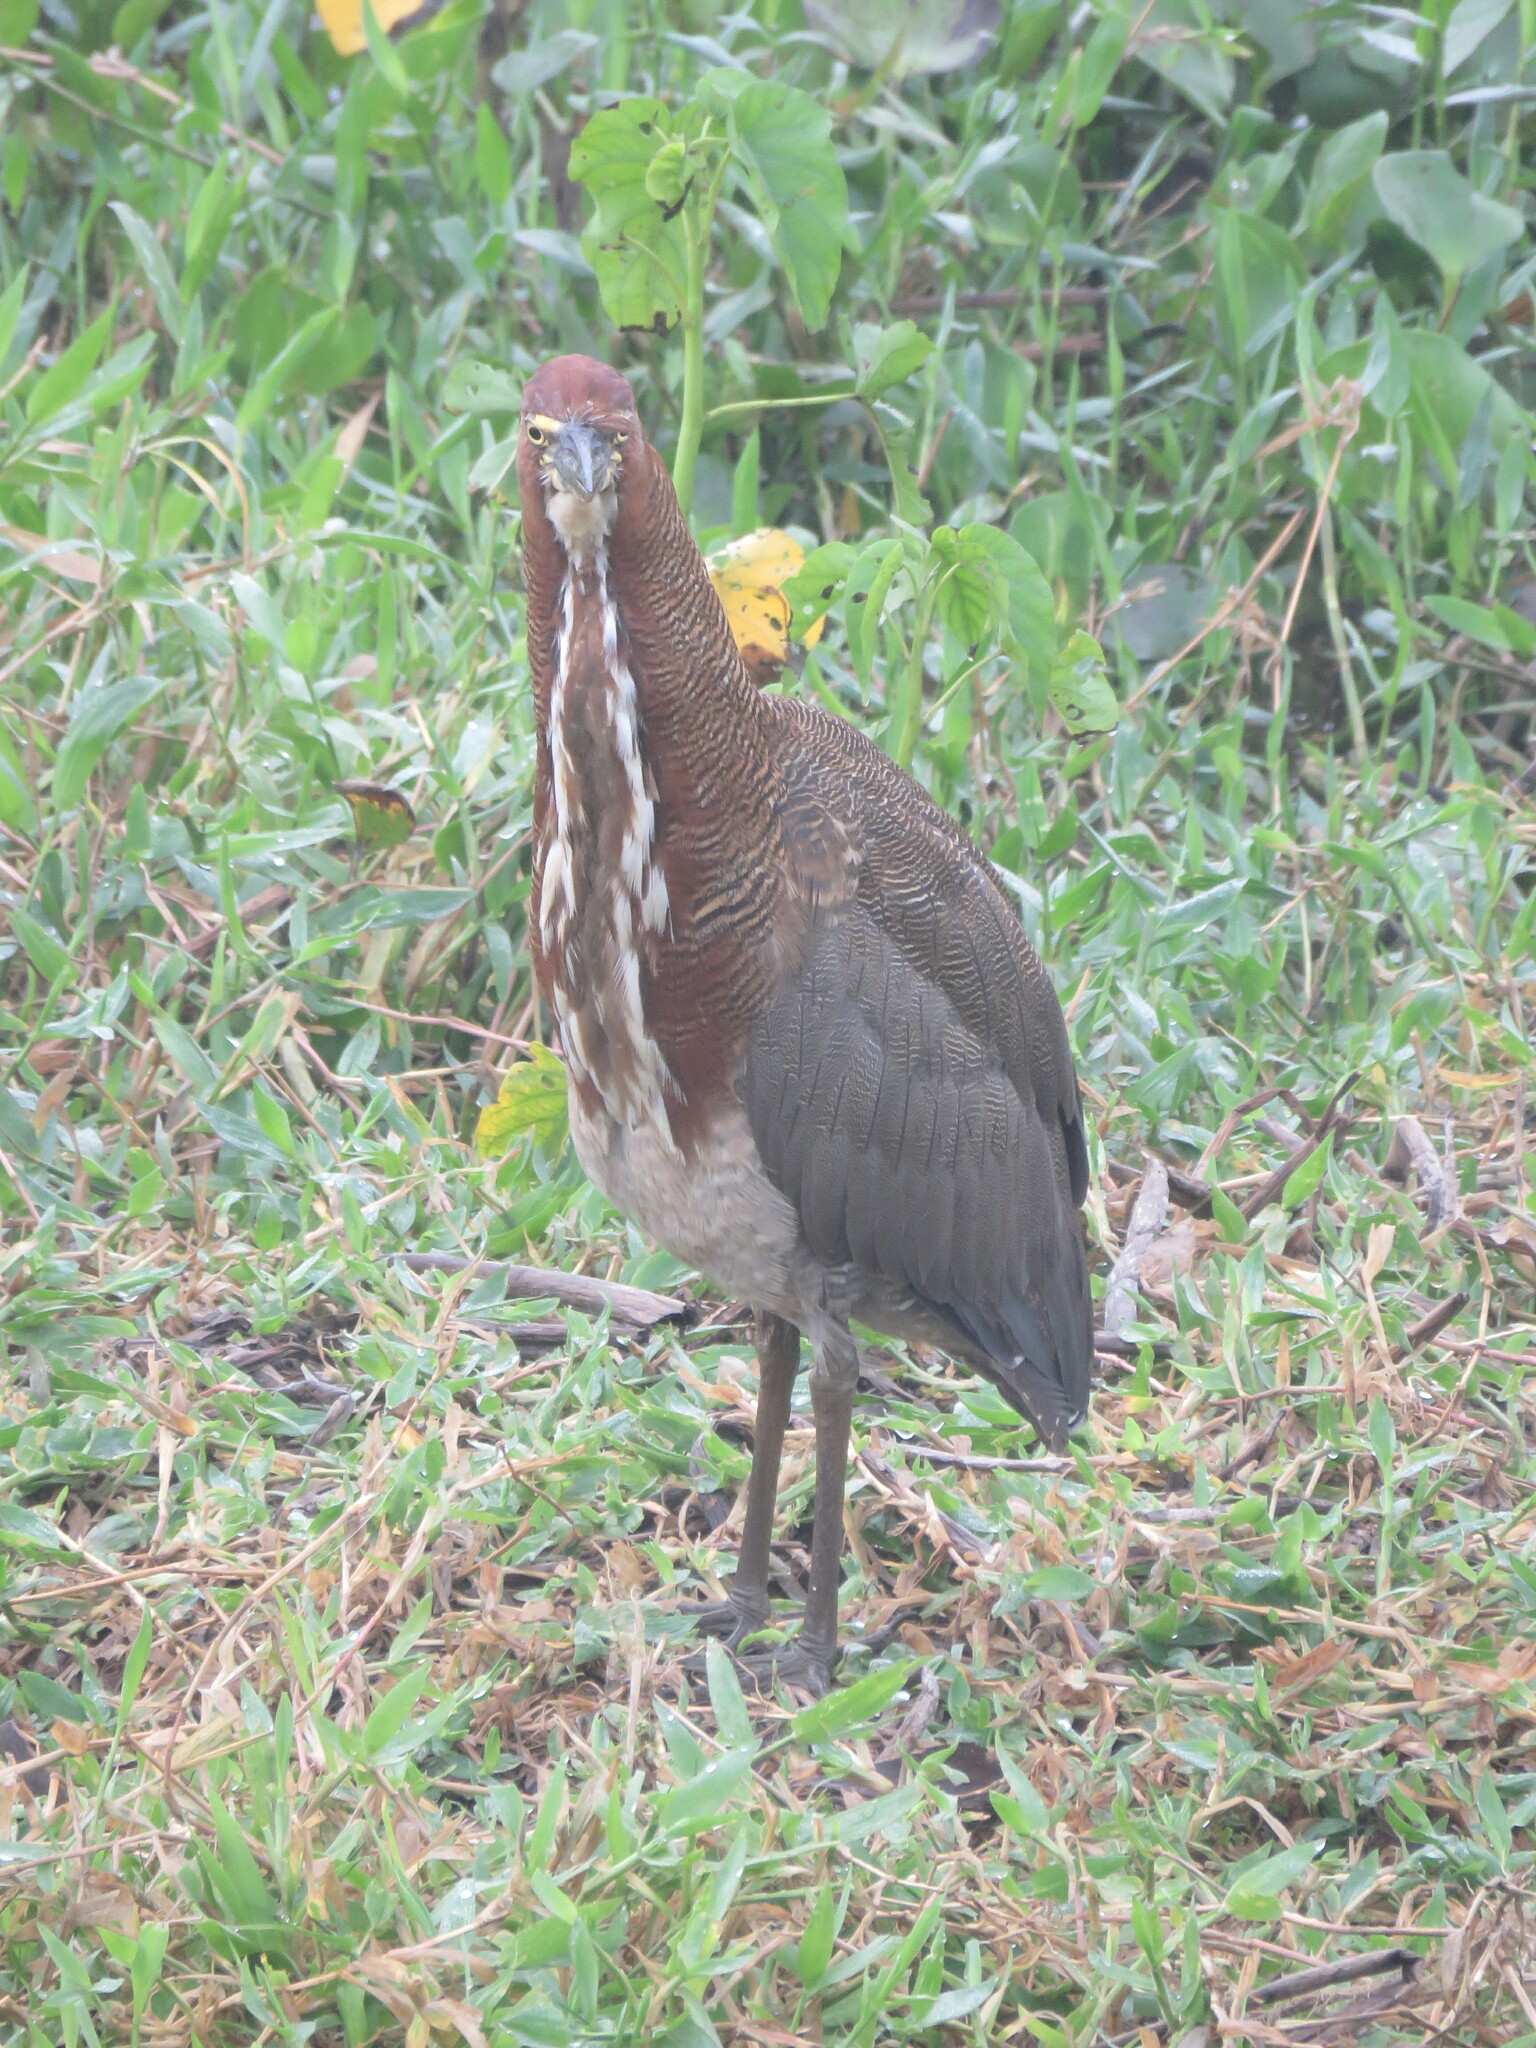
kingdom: Animalia
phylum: Chordata
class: Aves
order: Pelecaniformes
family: Ardeidae
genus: Tigrisoma
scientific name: Tigrisoma lineatum
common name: Rufescent tiger-heron
